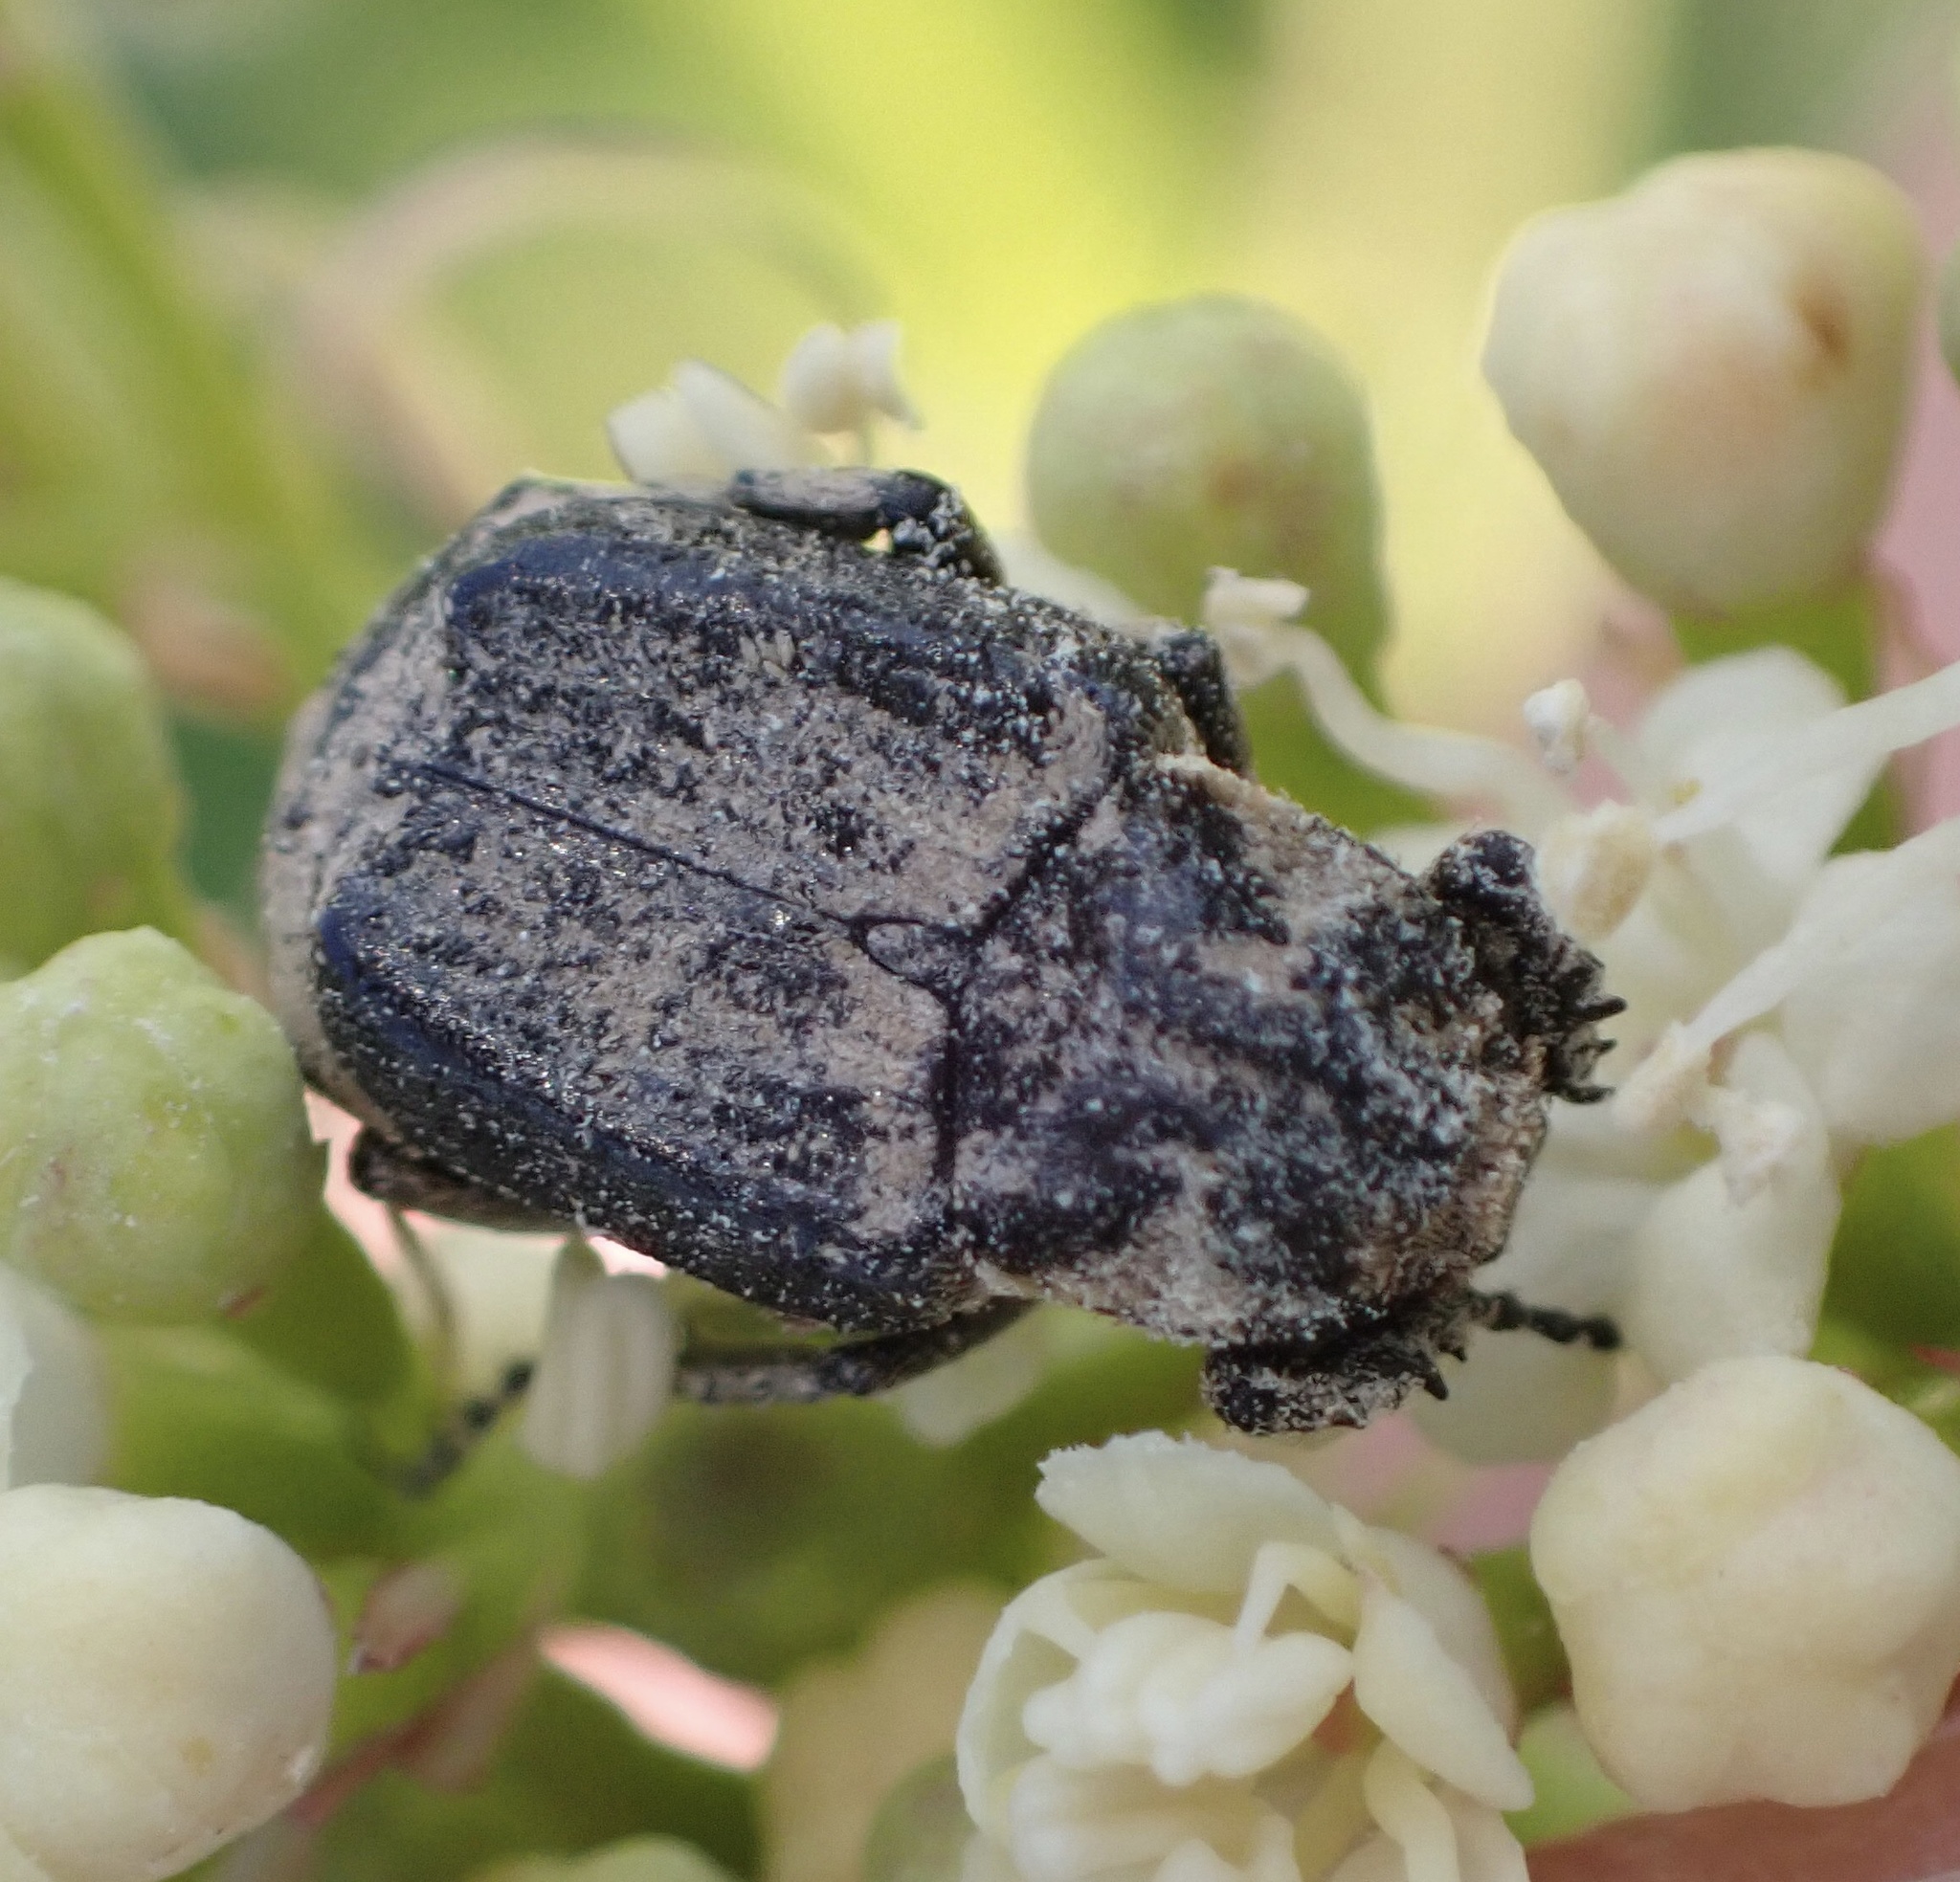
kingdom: Animalia
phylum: Arthropoda
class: Insecta
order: Coleoptera
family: Scarabaeidae
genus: Valgus
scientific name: Valgus hemipterus
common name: Bug flower chafer
